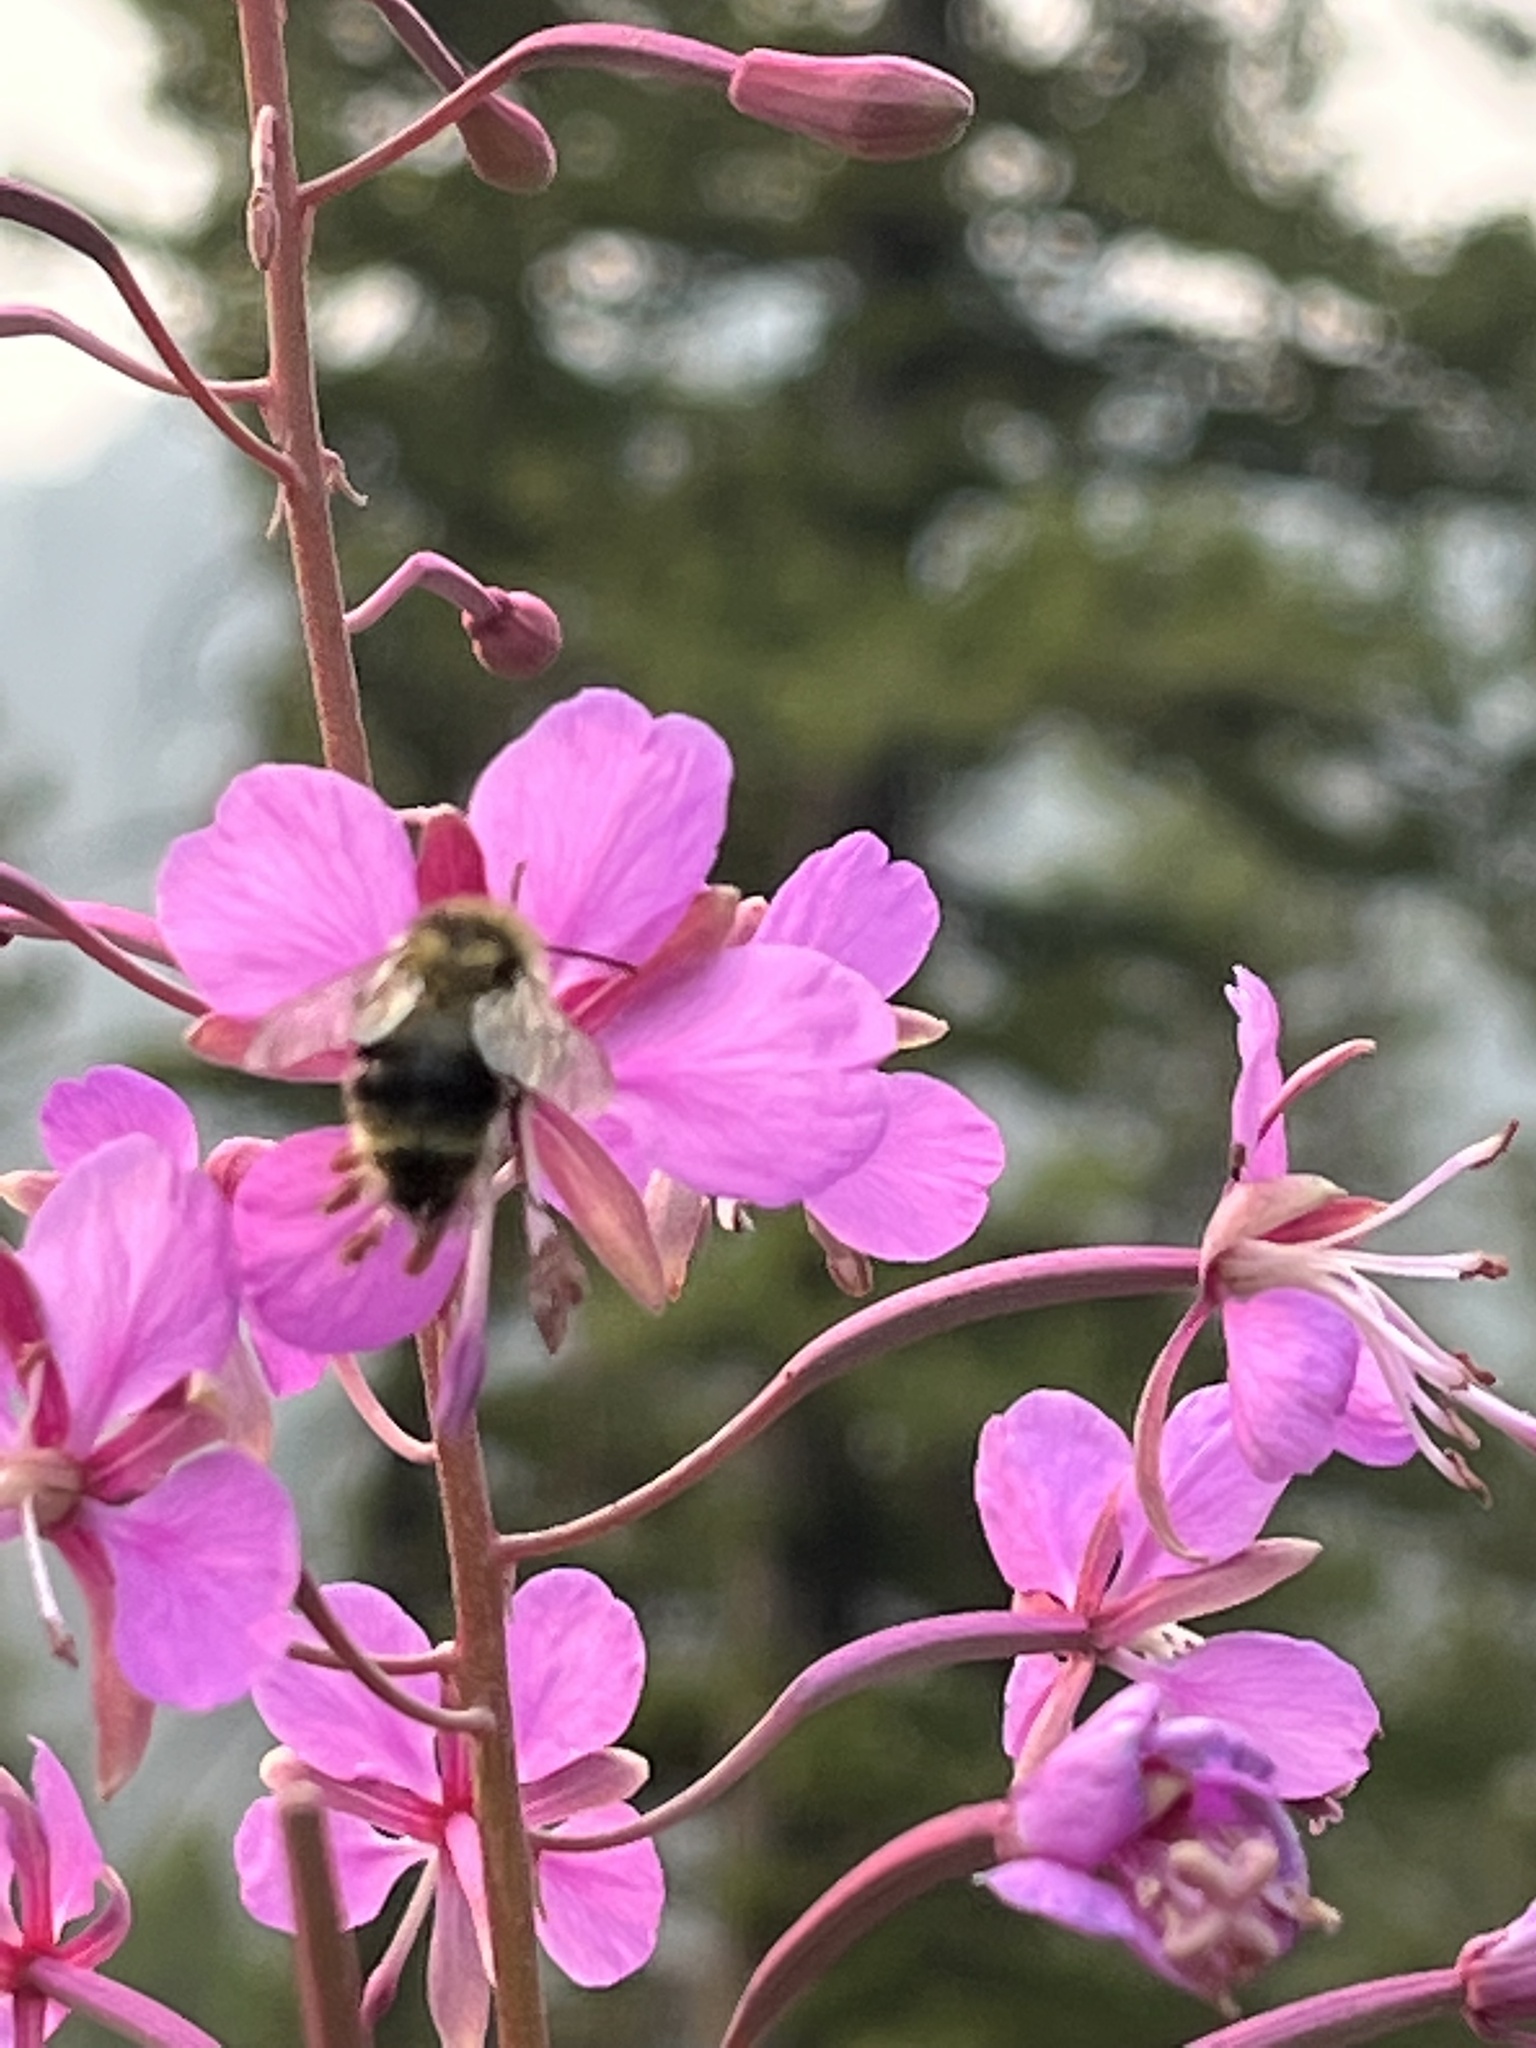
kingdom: Animalia
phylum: Arthropoda
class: Insecta
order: Hymenoptera
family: Apidae
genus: Bombus
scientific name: Bombus vancouverensis
